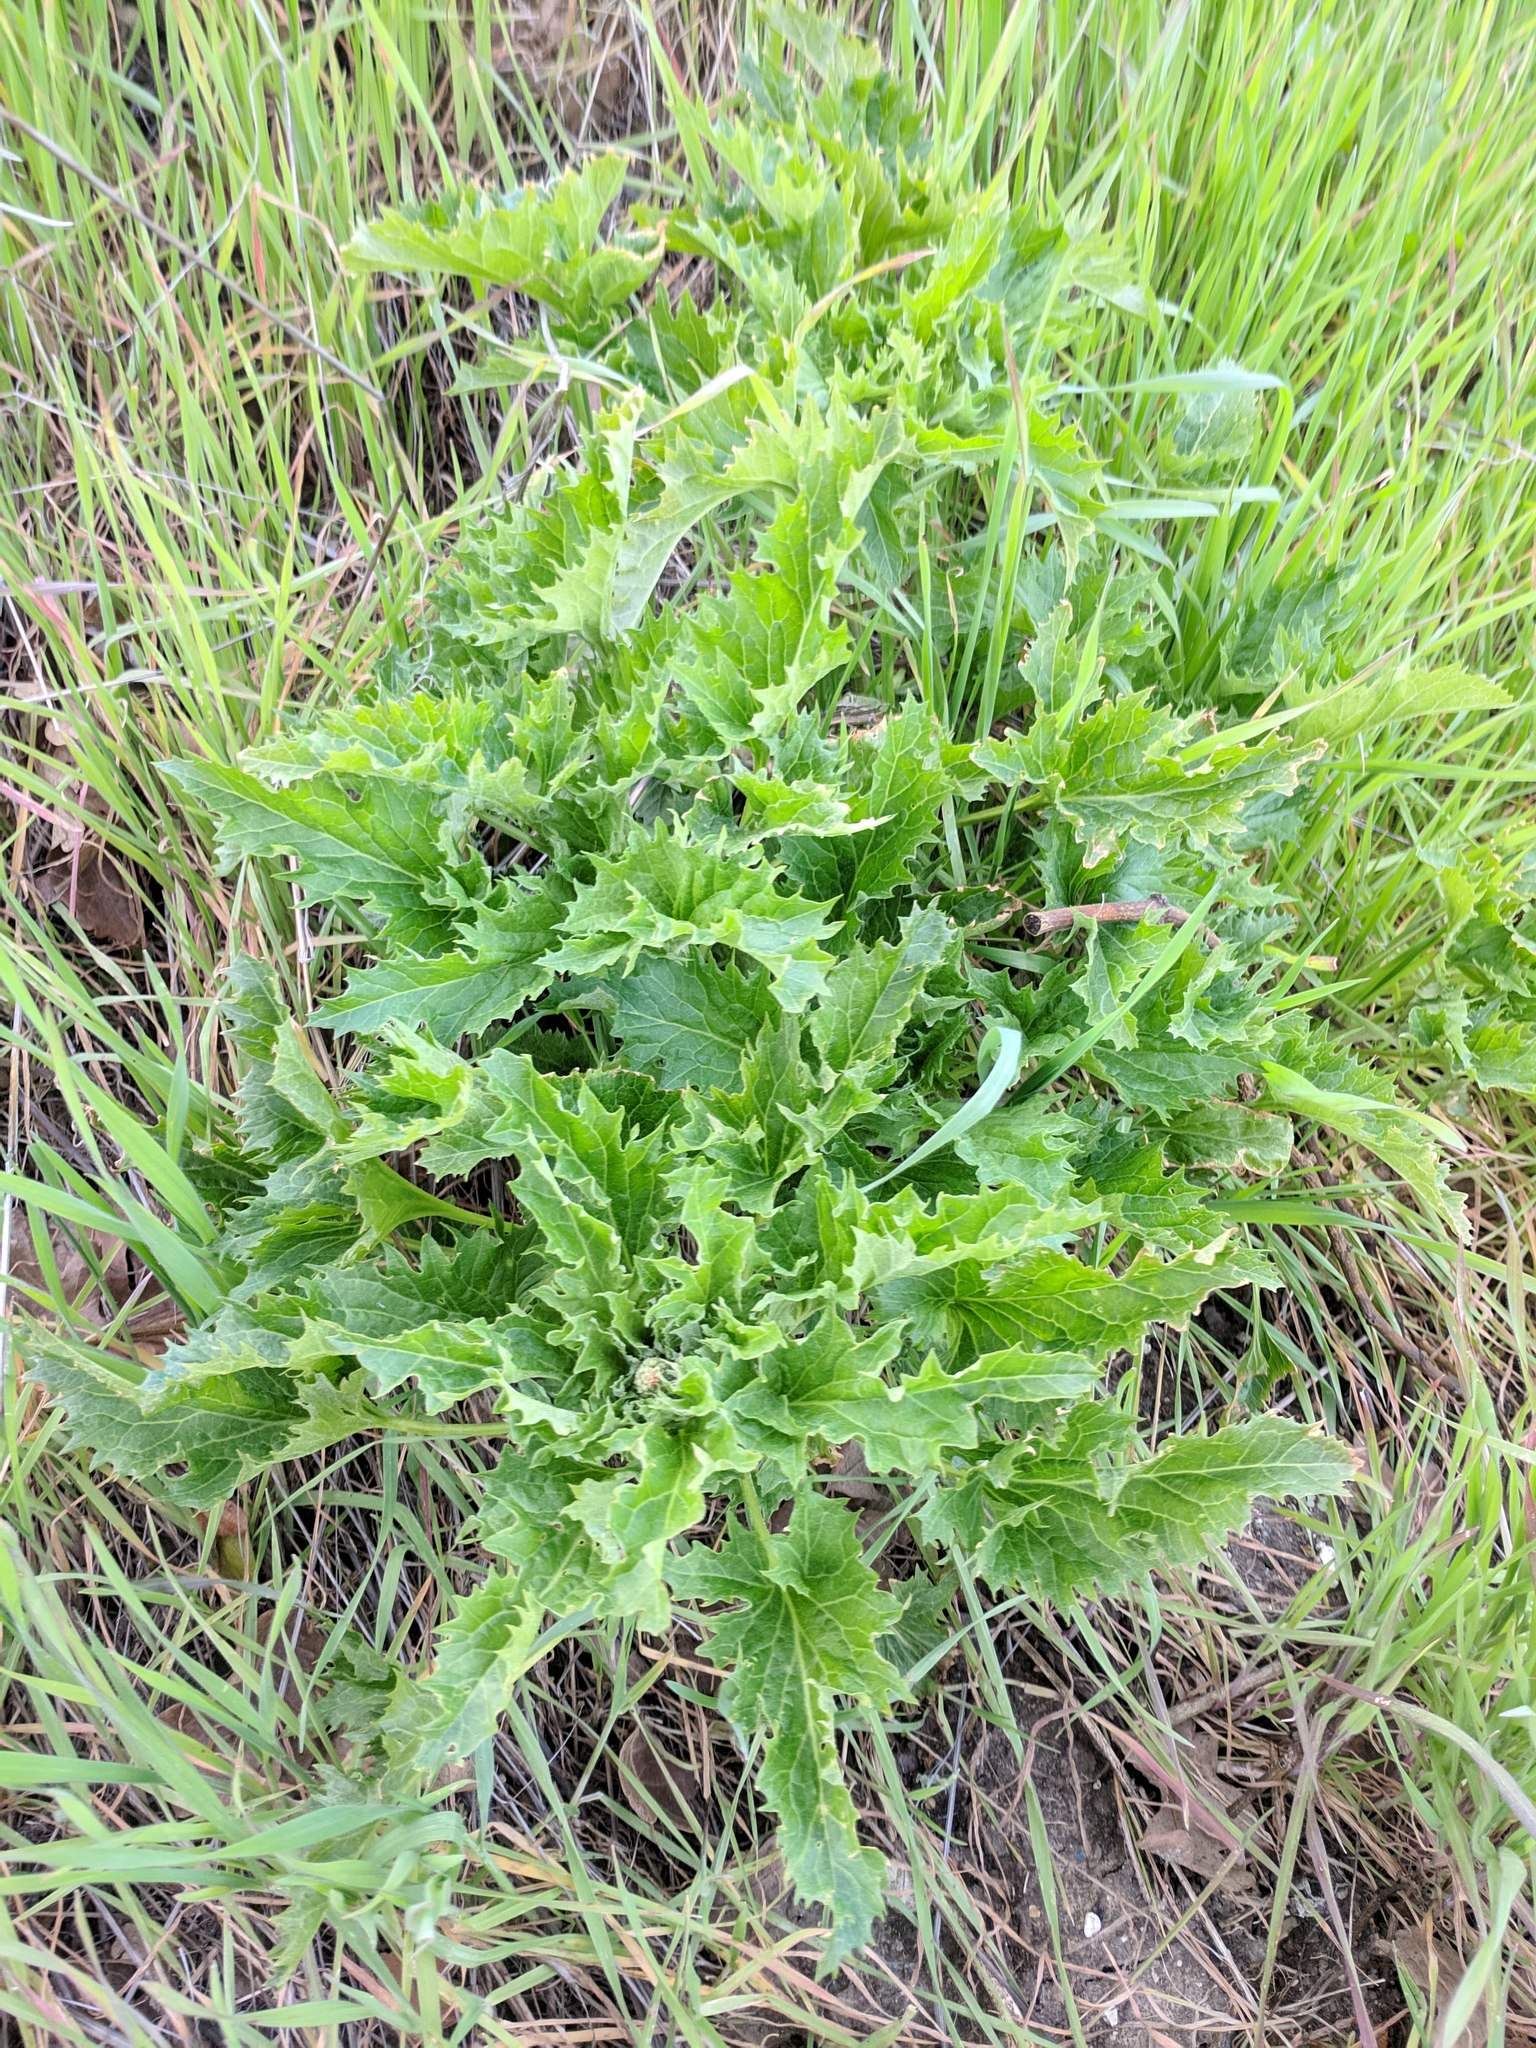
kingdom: Plantae
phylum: Tracheophyta
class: Magnoliopsida
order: Caryophyllales
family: Amaranthaceae
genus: Blitum
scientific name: Blitum californicum
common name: California goosefoot
